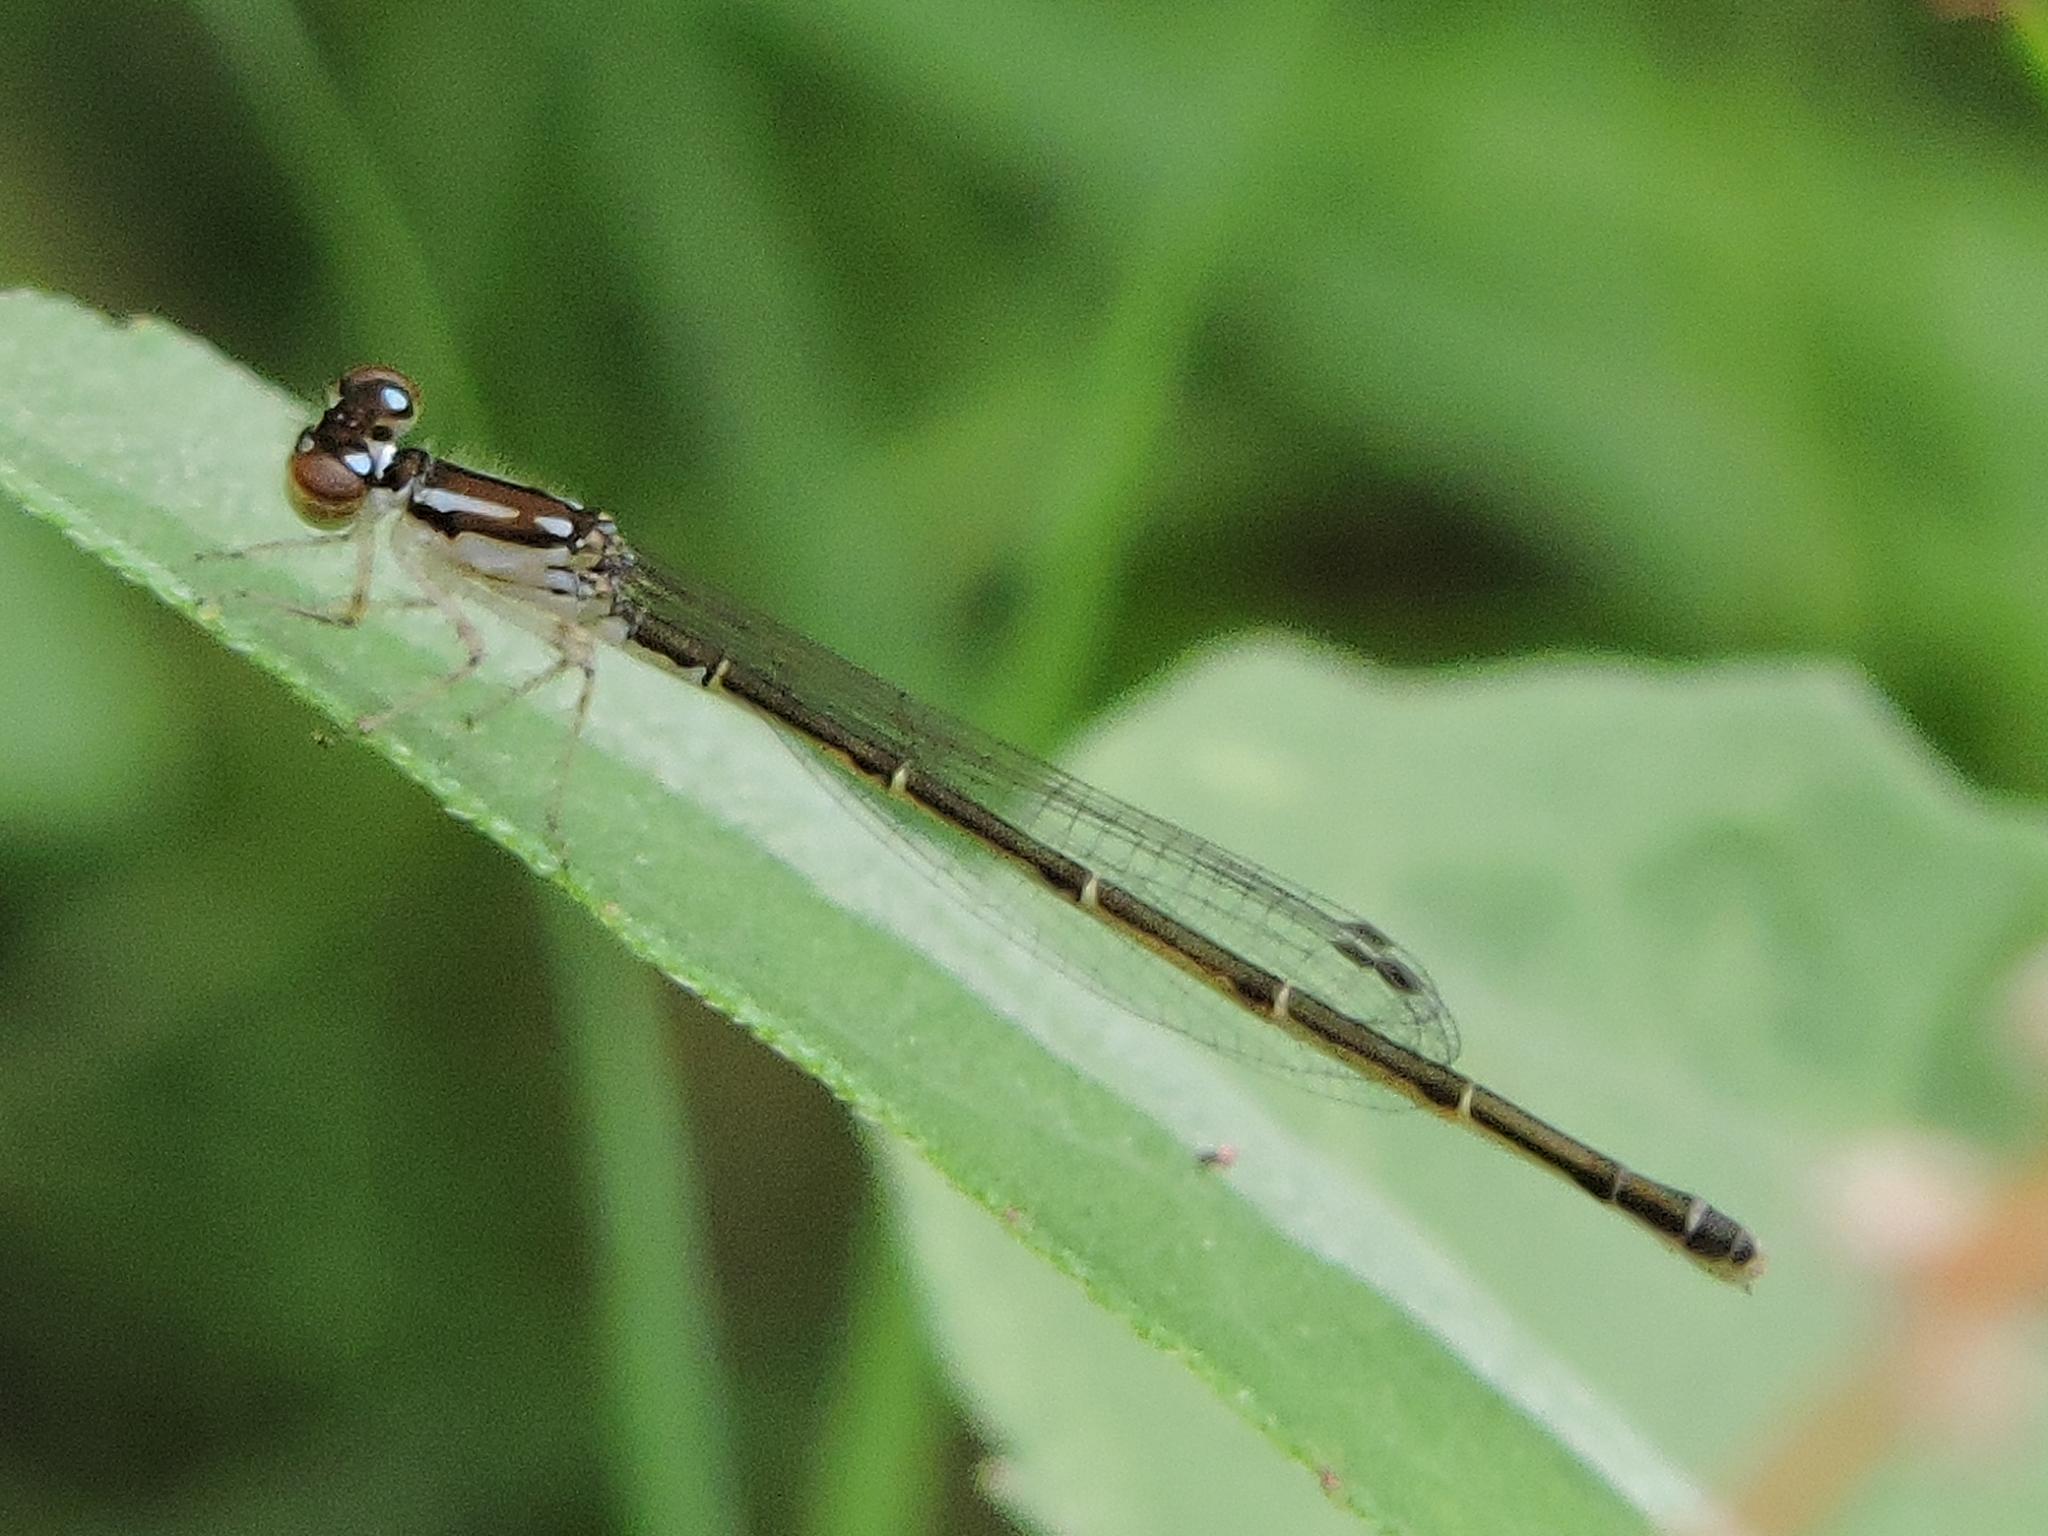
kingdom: Animalia
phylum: Arthropoda
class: Insecta
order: Odonata
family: Coenagrionidae
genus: Ischnura
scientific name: Ischnura posita
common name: Fragile forktail
